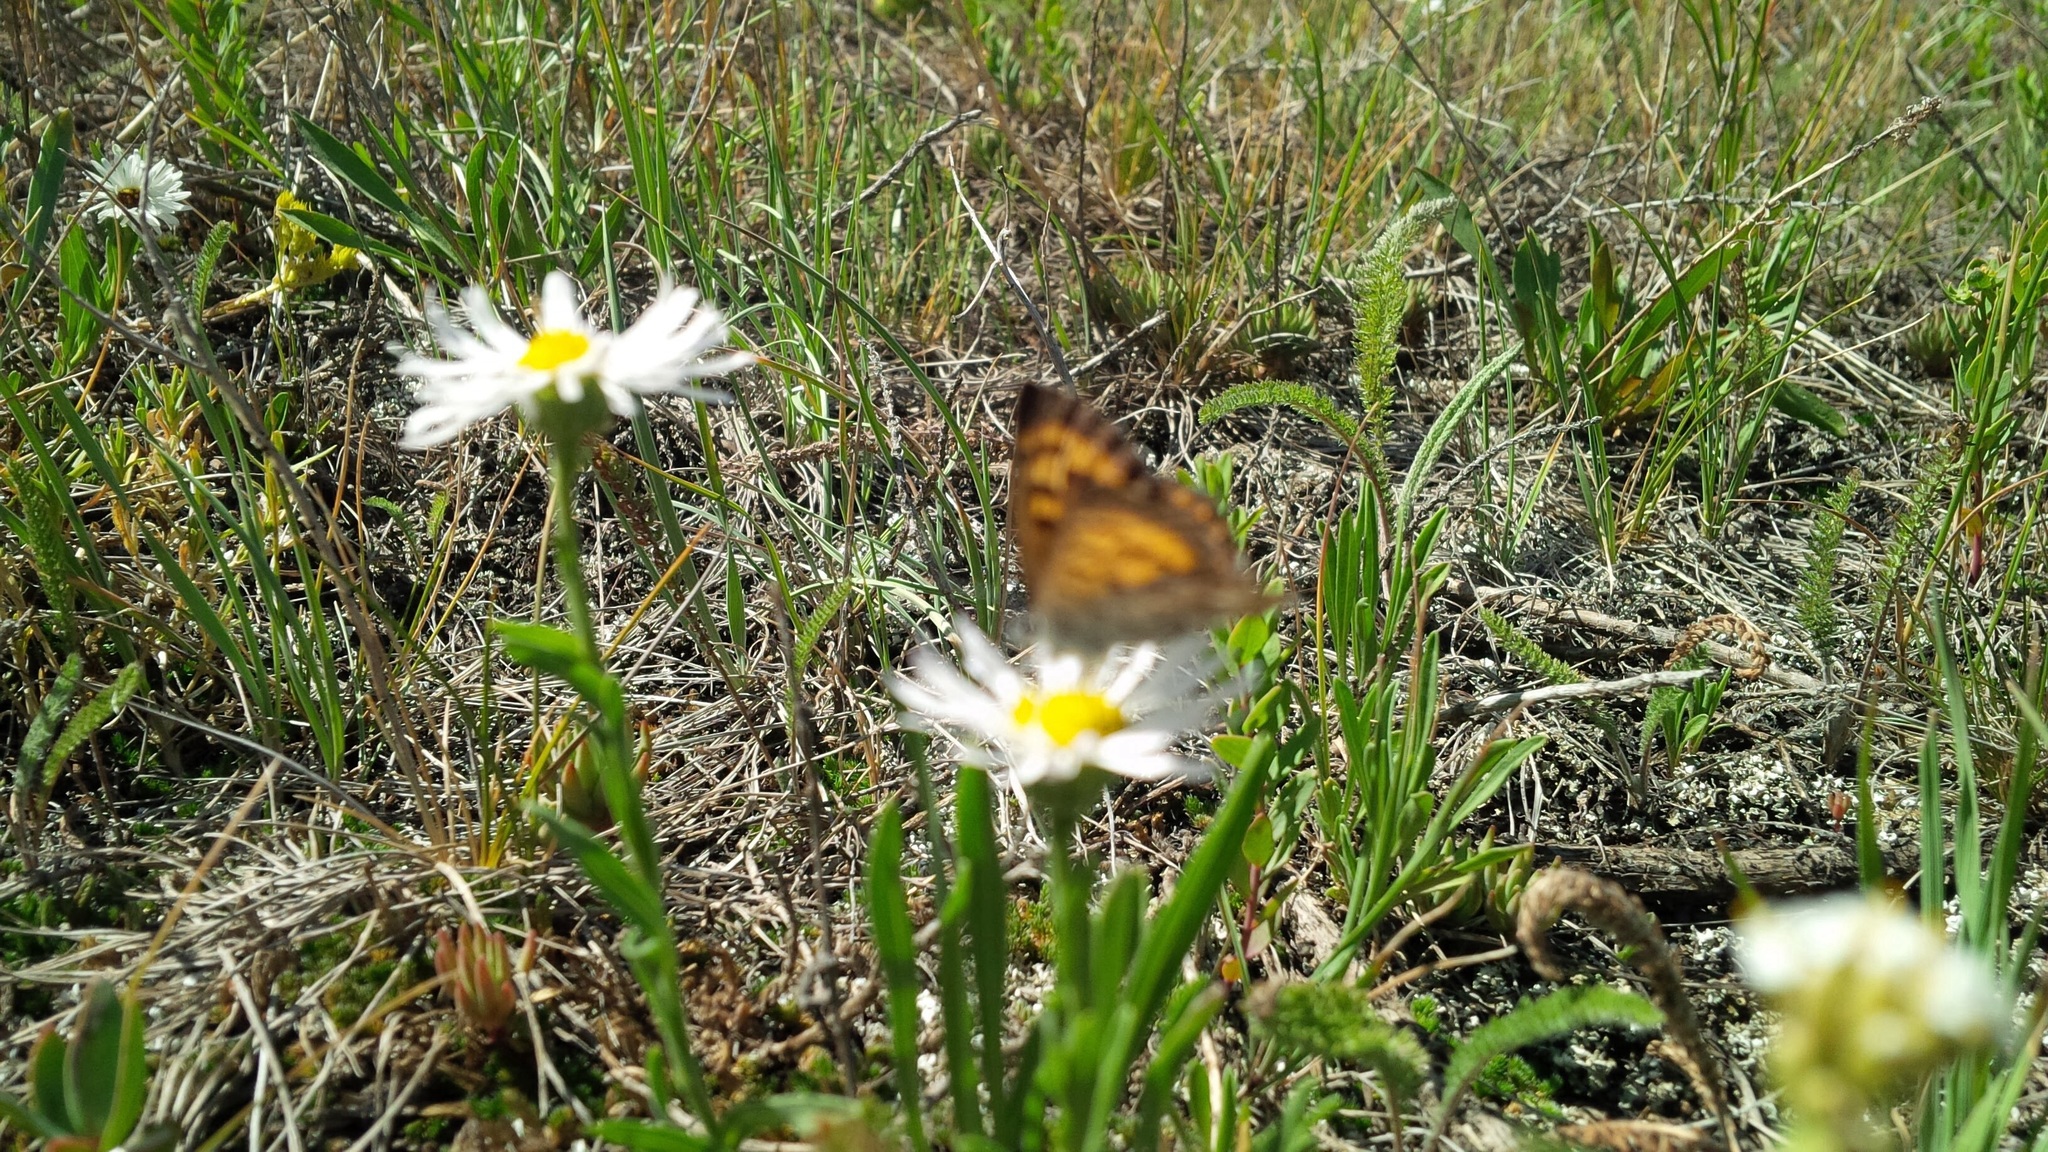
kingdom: Animalia
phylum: Arthropoda
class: Insecta
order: Lepidoptera
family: Lycaenidae
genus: Tharsalea
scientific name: Tharsalea mariposa
